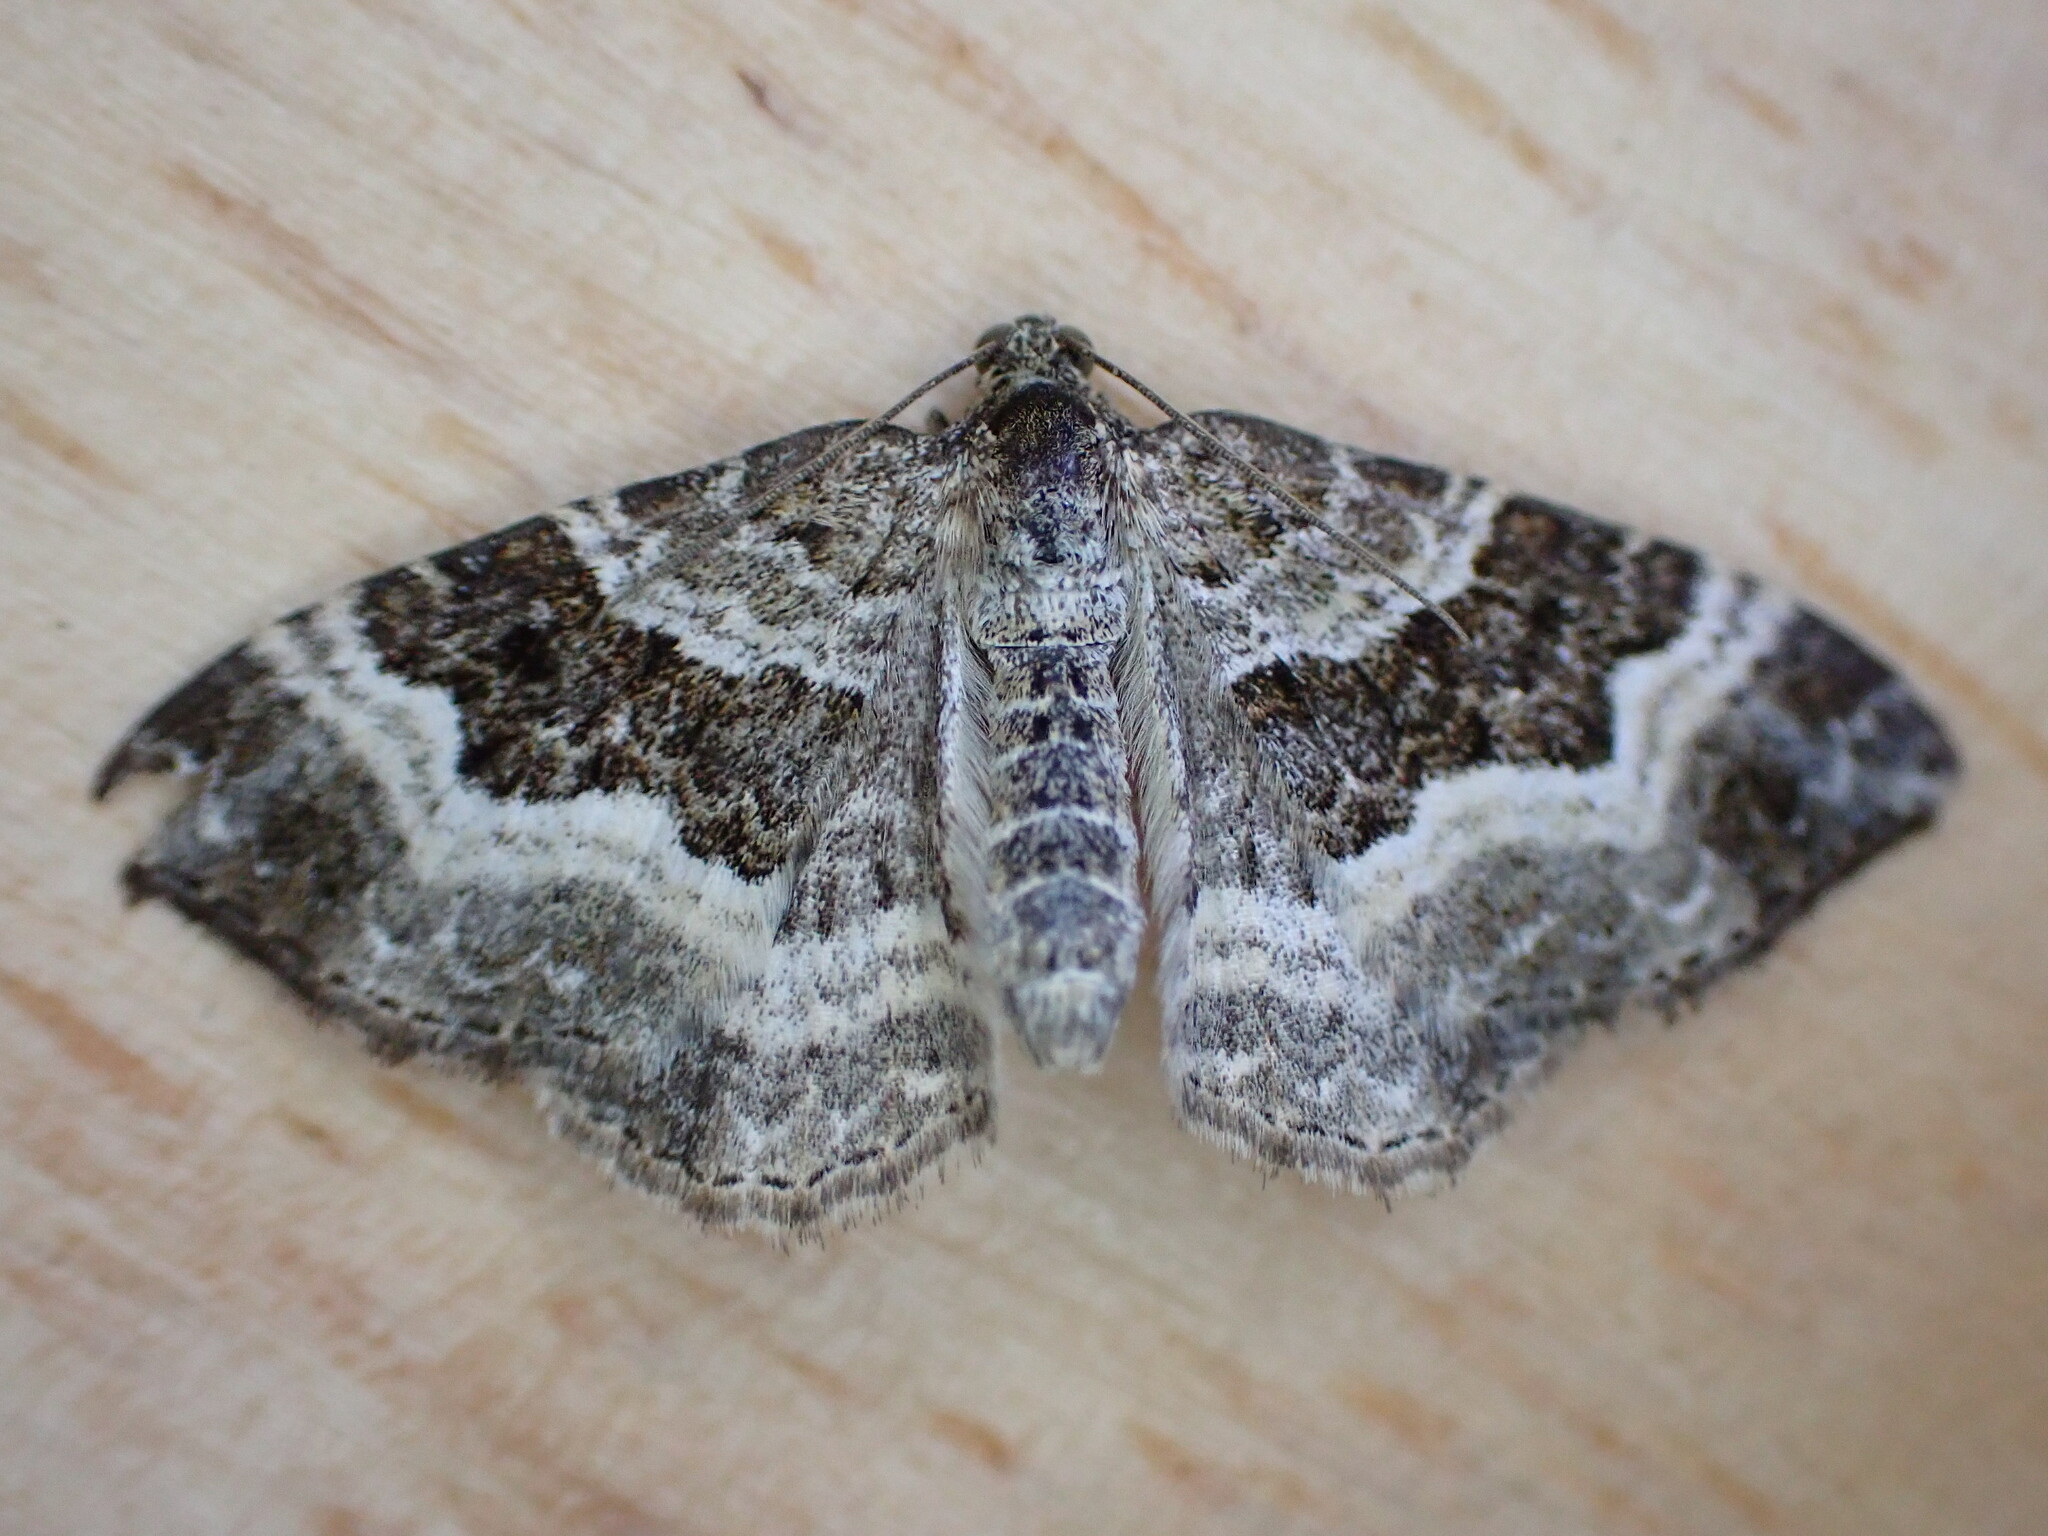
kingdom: Animalia
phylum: Arthropoda
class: Insecta
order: Lepidoptera
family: Geometridae
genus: Epirrhoe
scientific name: Epirrhoe alternata
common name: Common carpet
